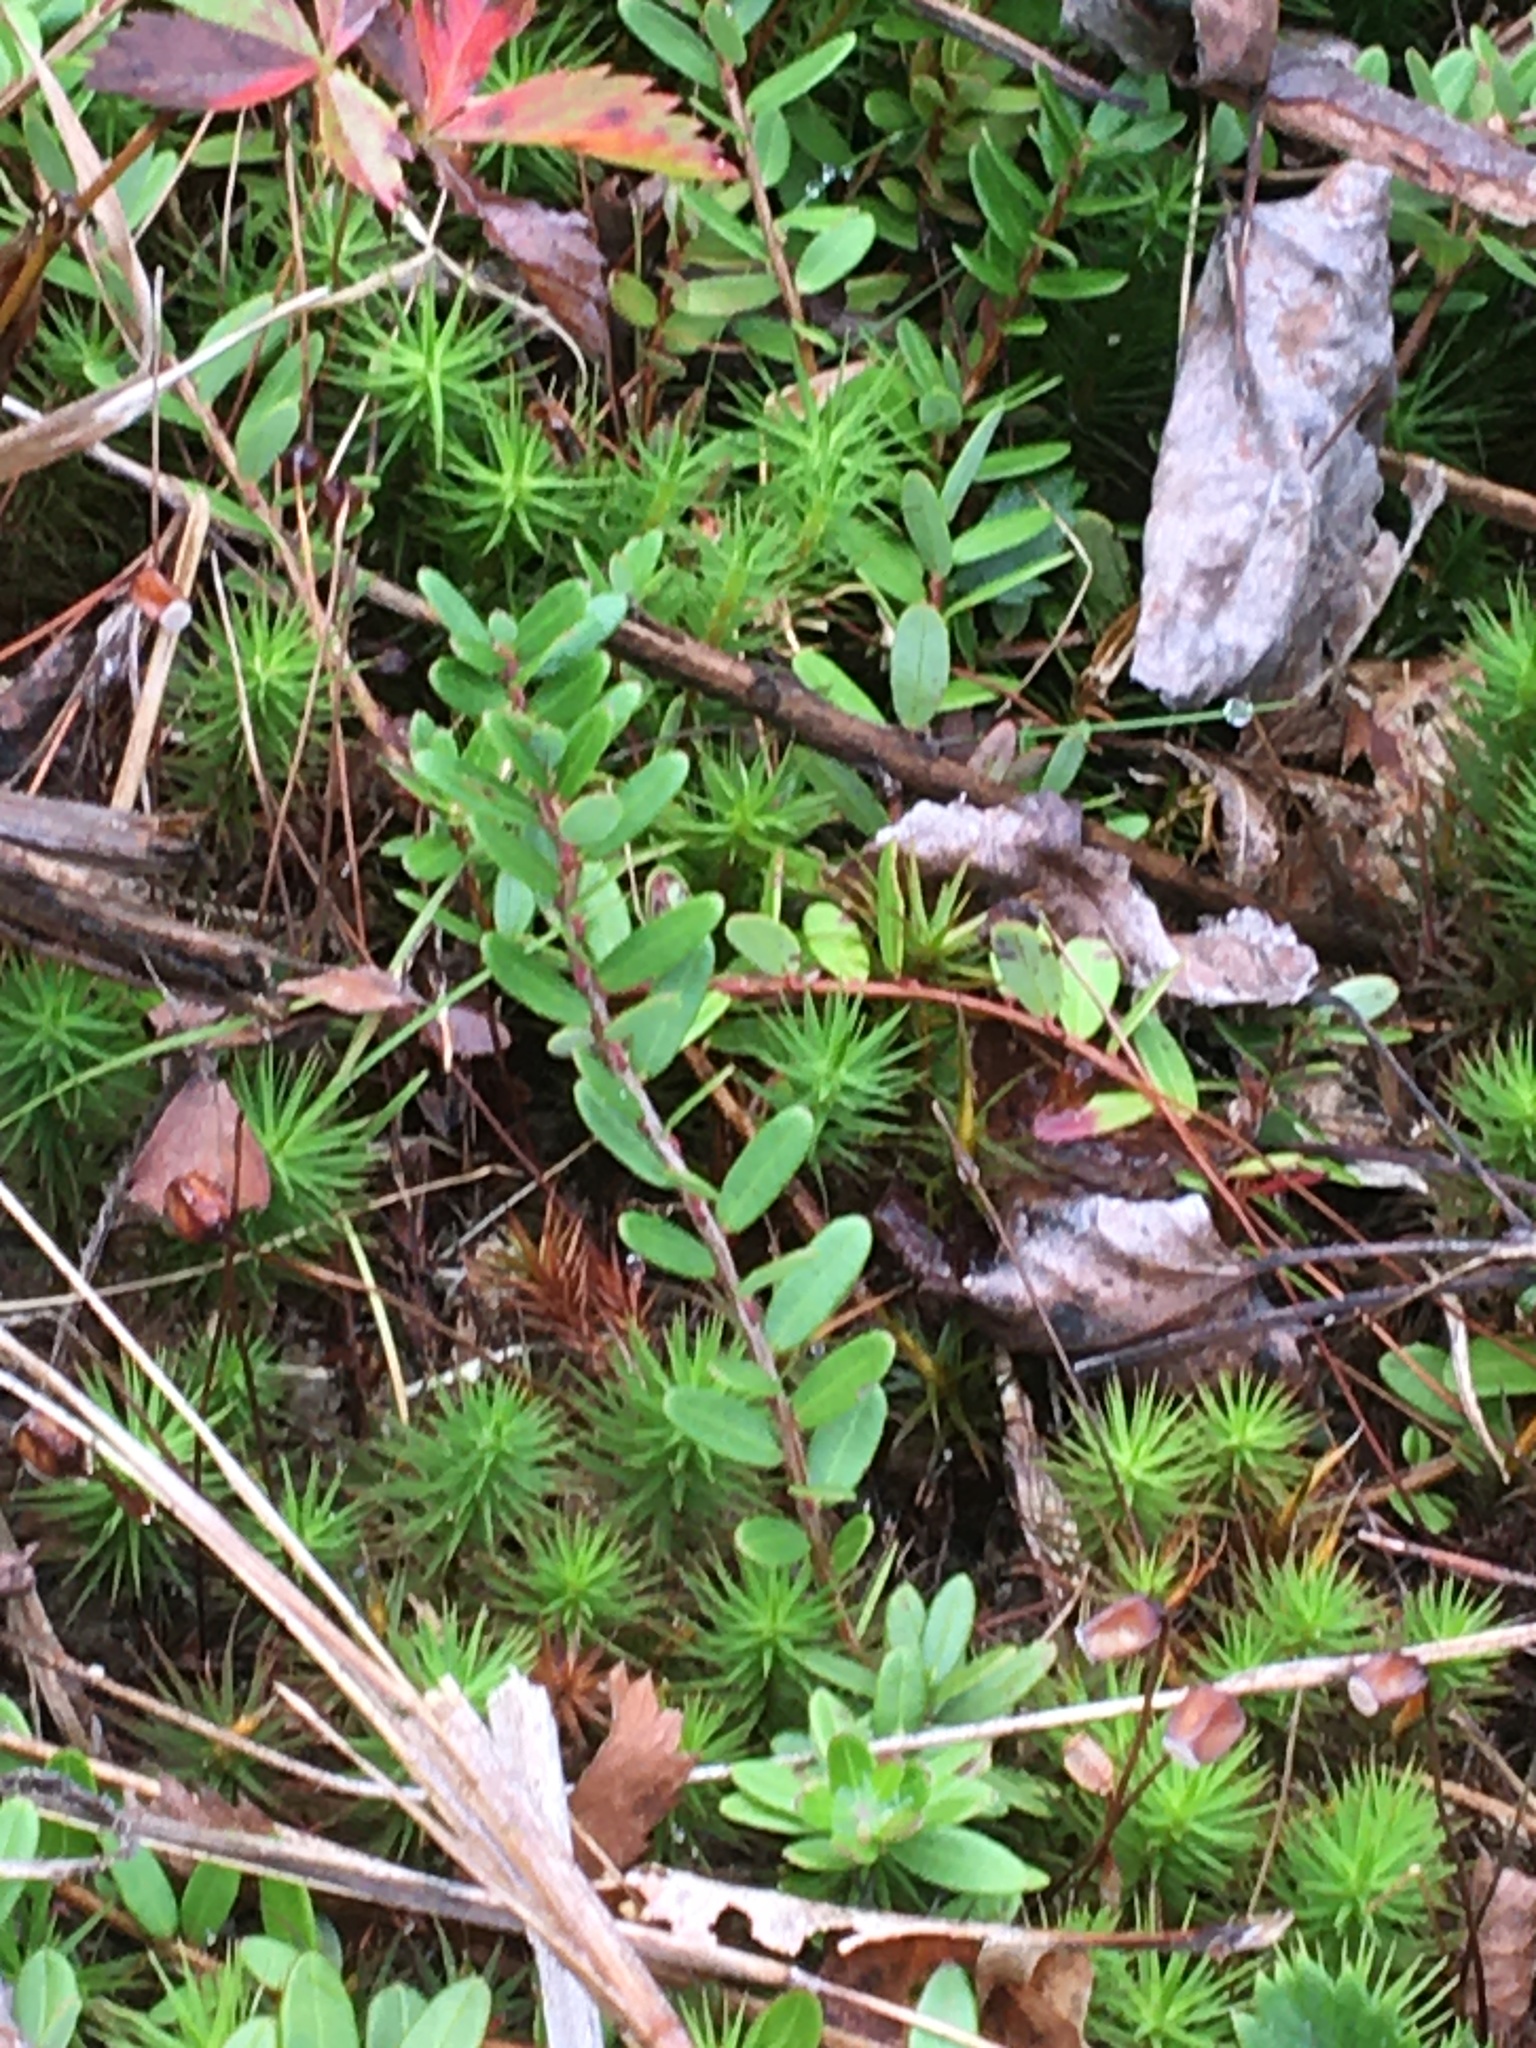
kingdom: Plantae
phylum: Tracheophyta
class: Magnoliopsida
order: Ericales
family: Ericaceae
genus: Vaccinium
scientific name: Vaccinium macrocarpon
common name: American cranberry
